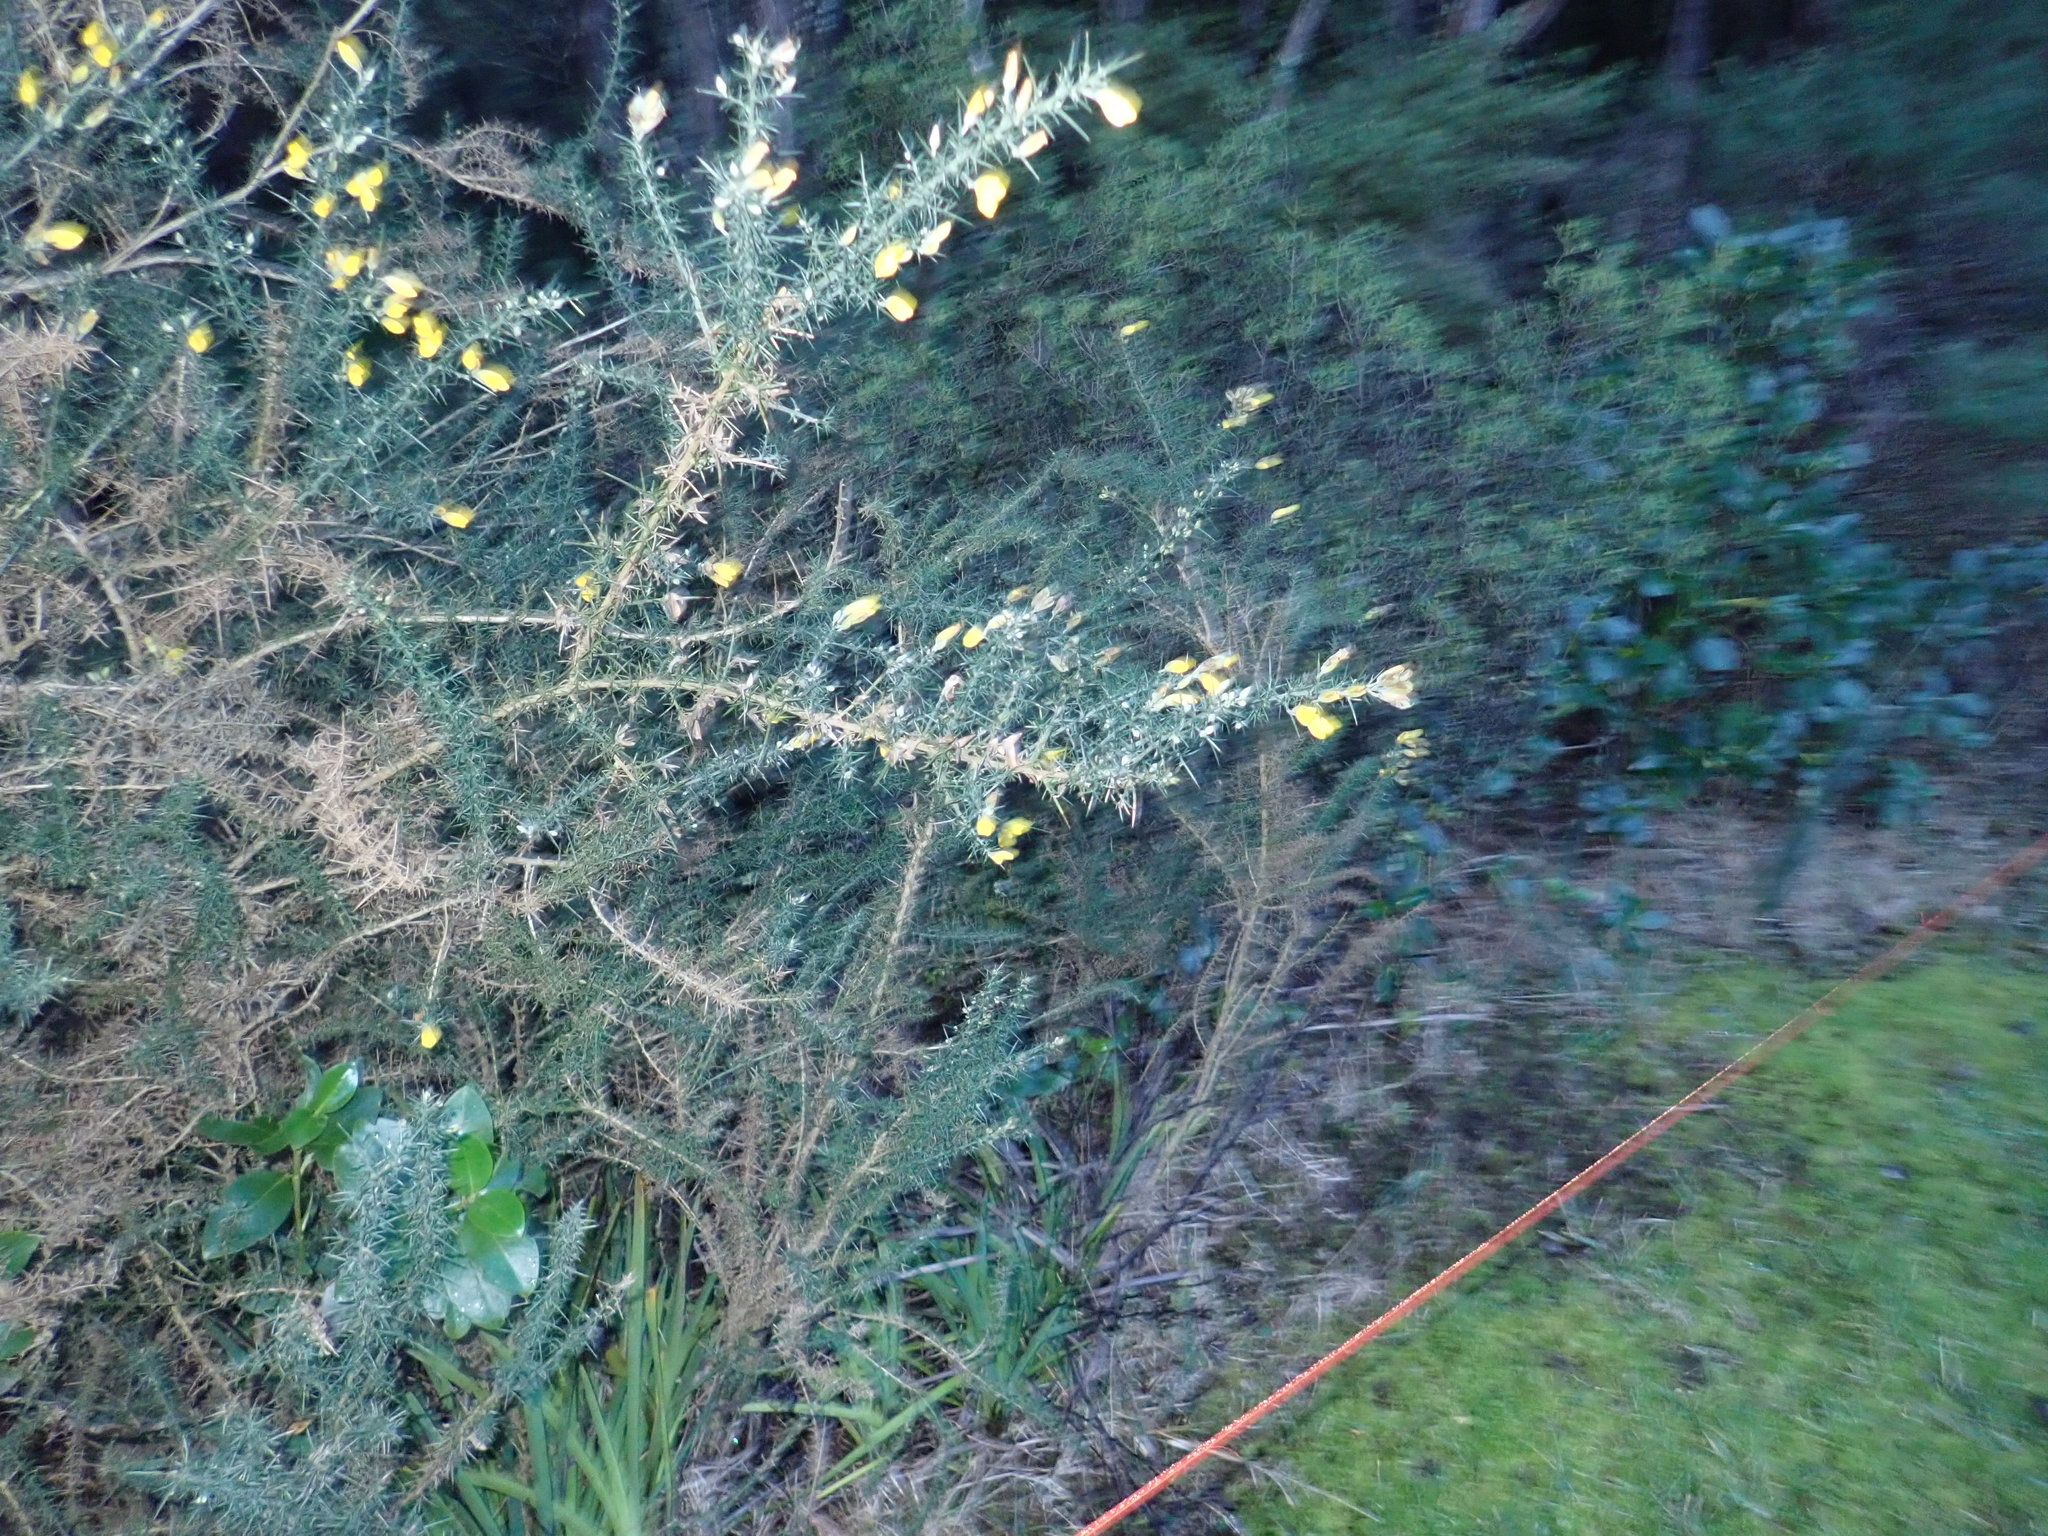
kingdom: Plantae
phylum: Tracheophyta
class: Magnoliopsida
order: Fabales
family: Fabaceae
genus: Ulex
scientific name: Ulex europaeus
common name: Common gorse
